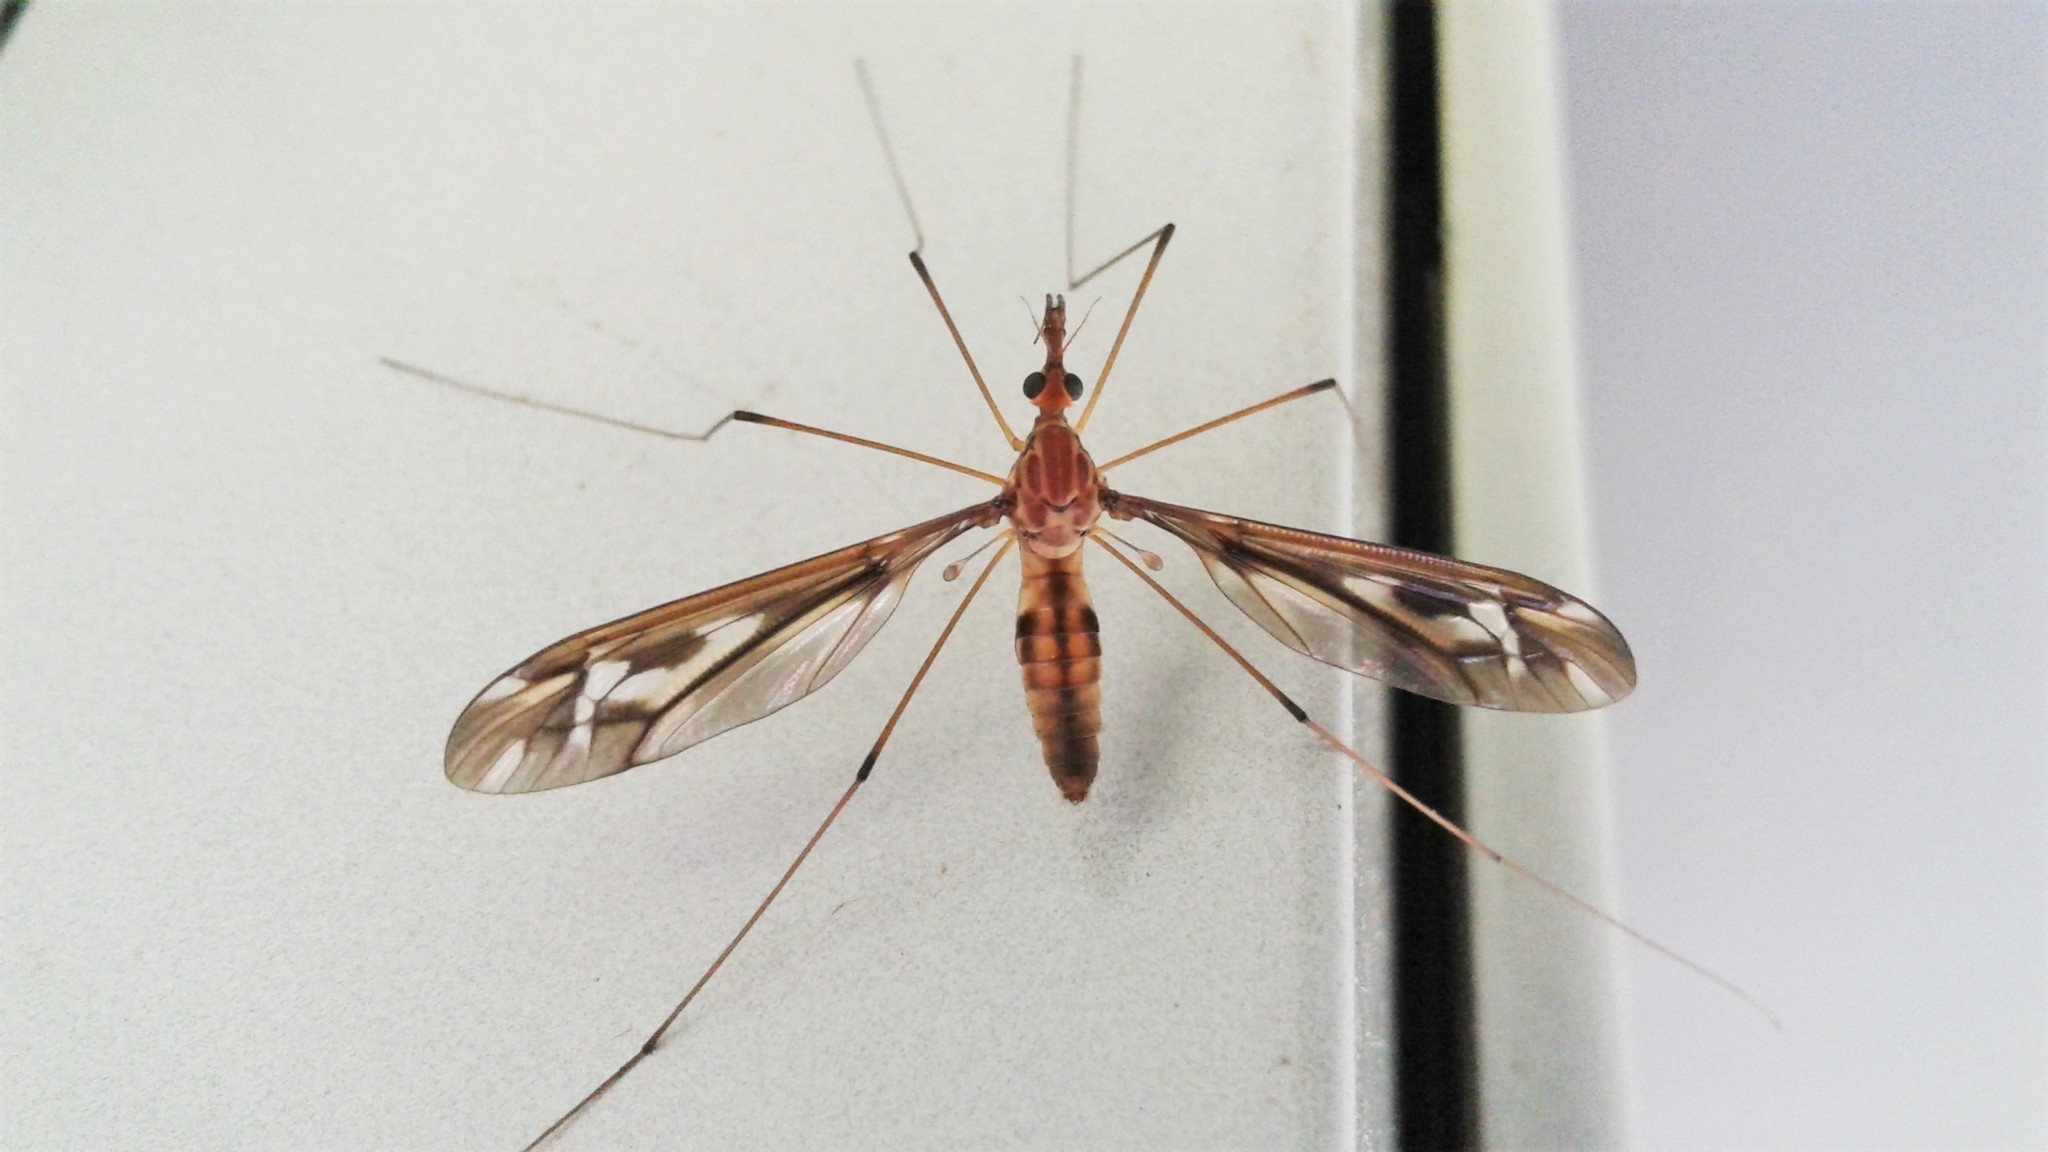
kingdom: Animalia
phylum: Arthropoda
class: Insecta
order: Diptera
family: Tipulidae
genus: Leptotarsus
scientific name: Leptotarsus huttoni
